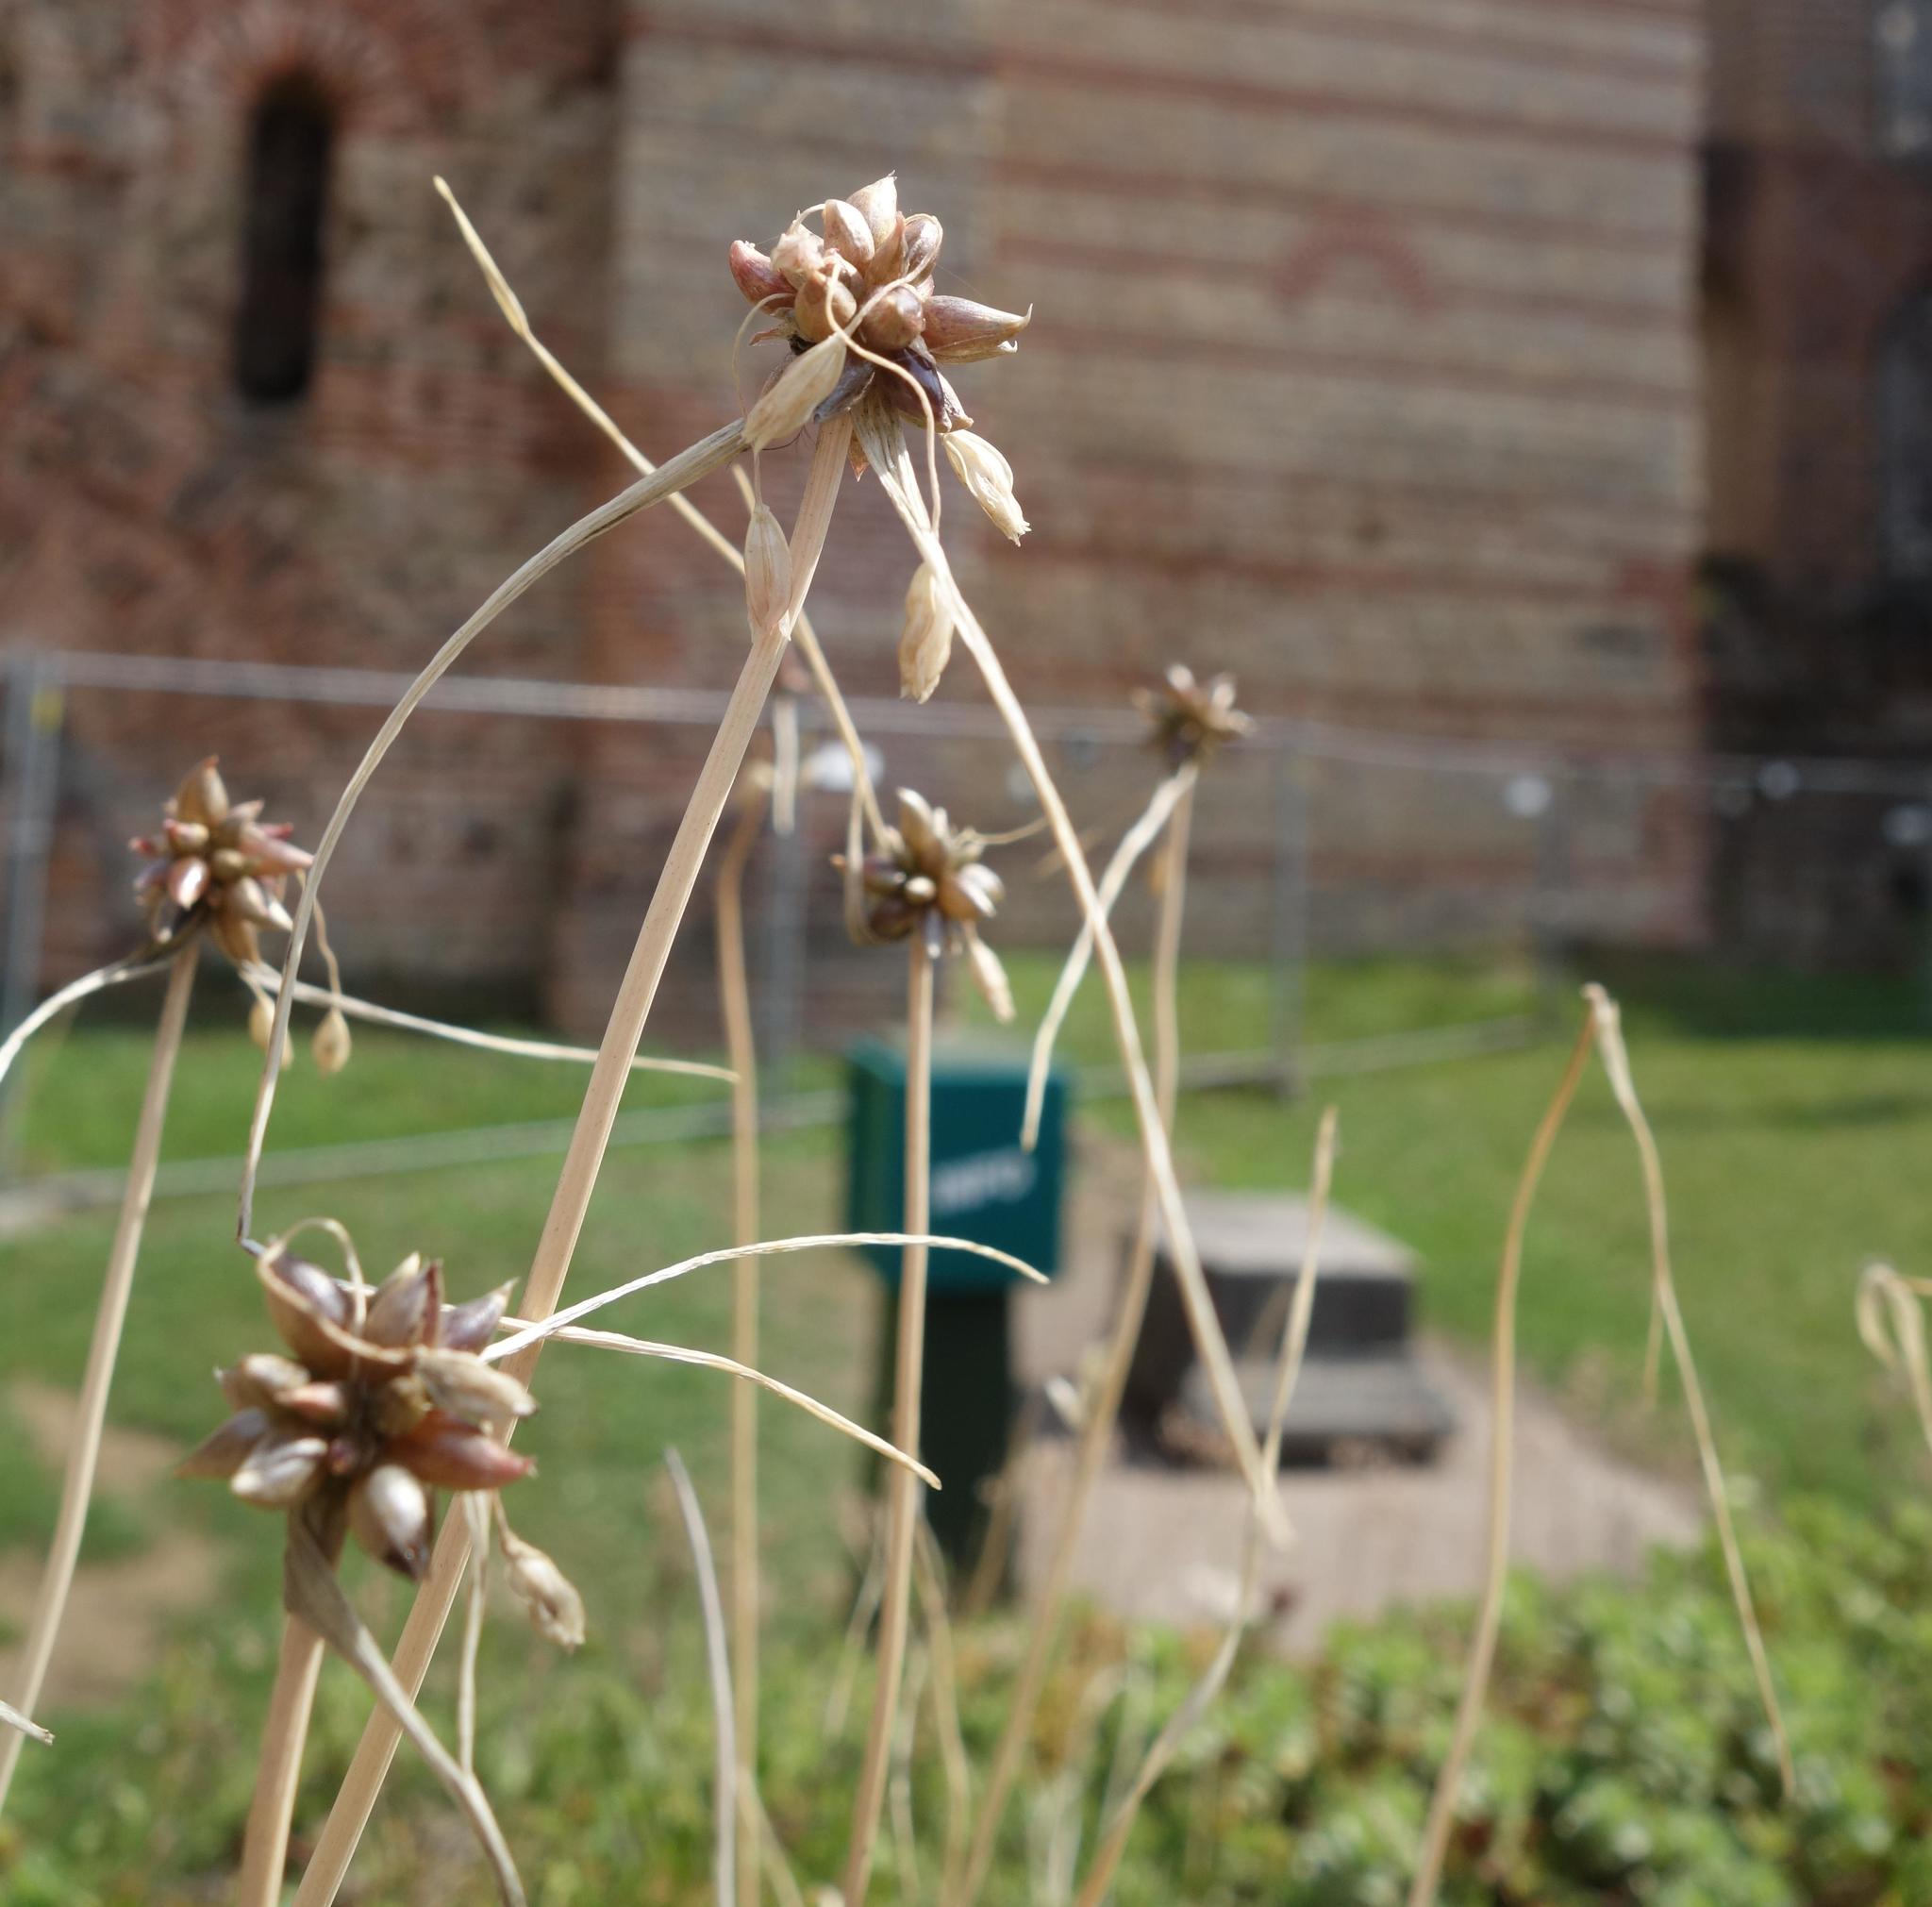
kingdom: Plantae
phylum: Tracheophyta
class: Liliopsida
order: Asparagales
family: Amaryllidaceae
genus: Allium
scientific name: Allium oleraceum
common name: Field garlic
